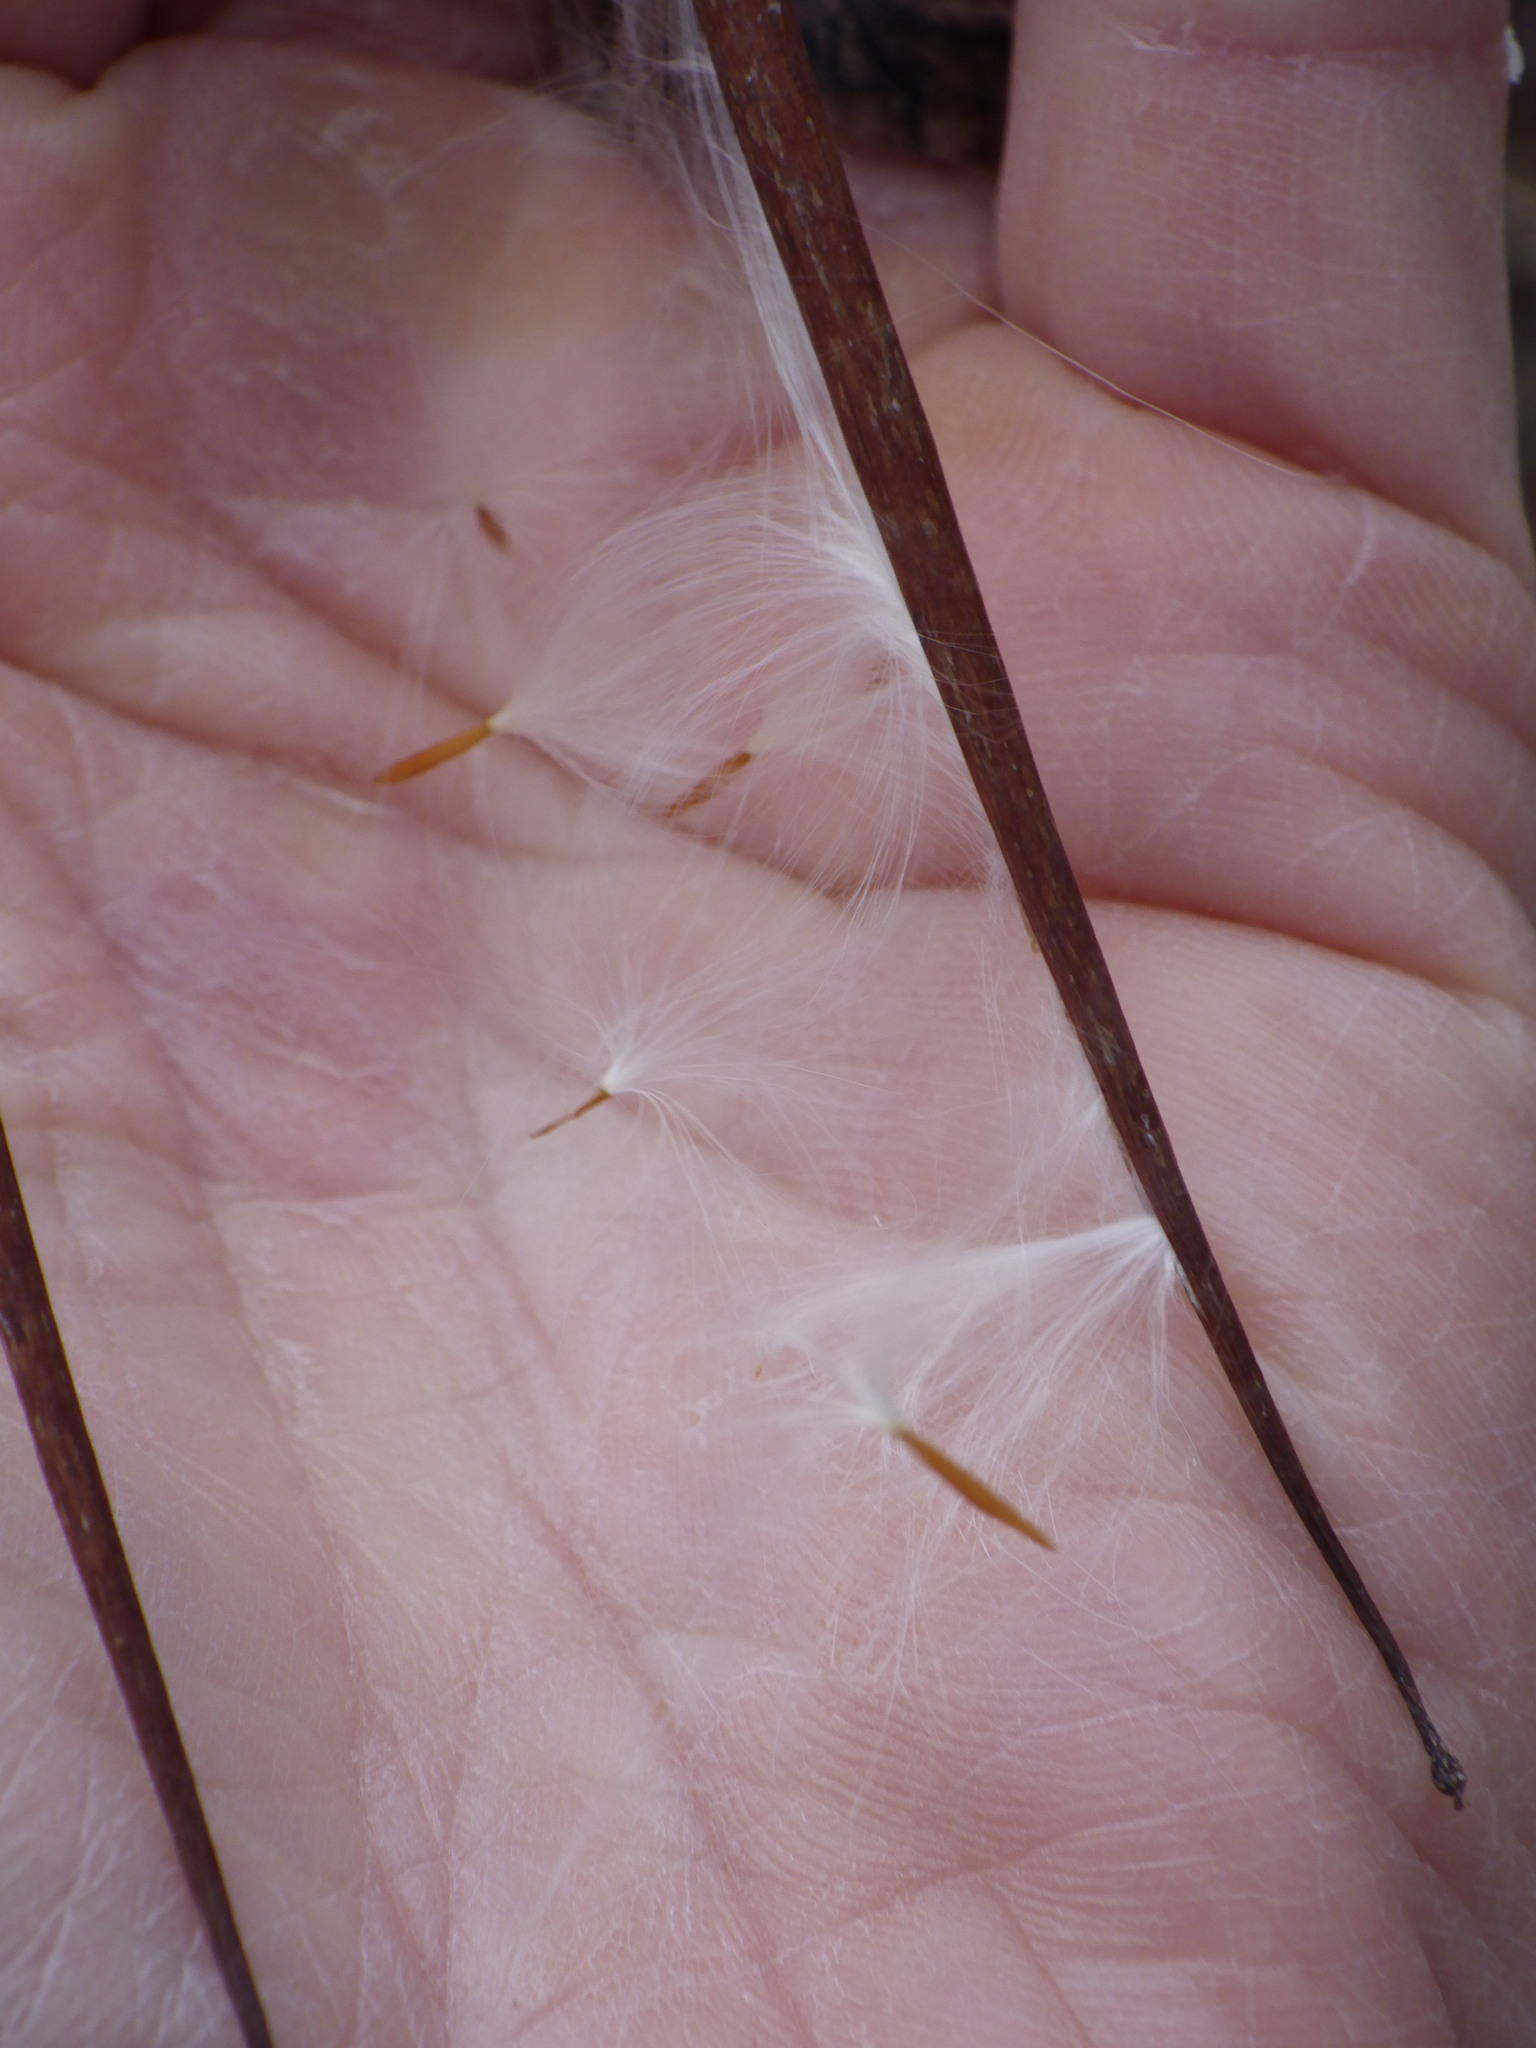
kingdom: Plantae
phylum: Tracheophyta
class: Magnoliopsida
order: Gentianales
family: Apocynaceae
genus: Apocynum
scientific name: Apocynum cannabinum
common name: Hemp dogbane
